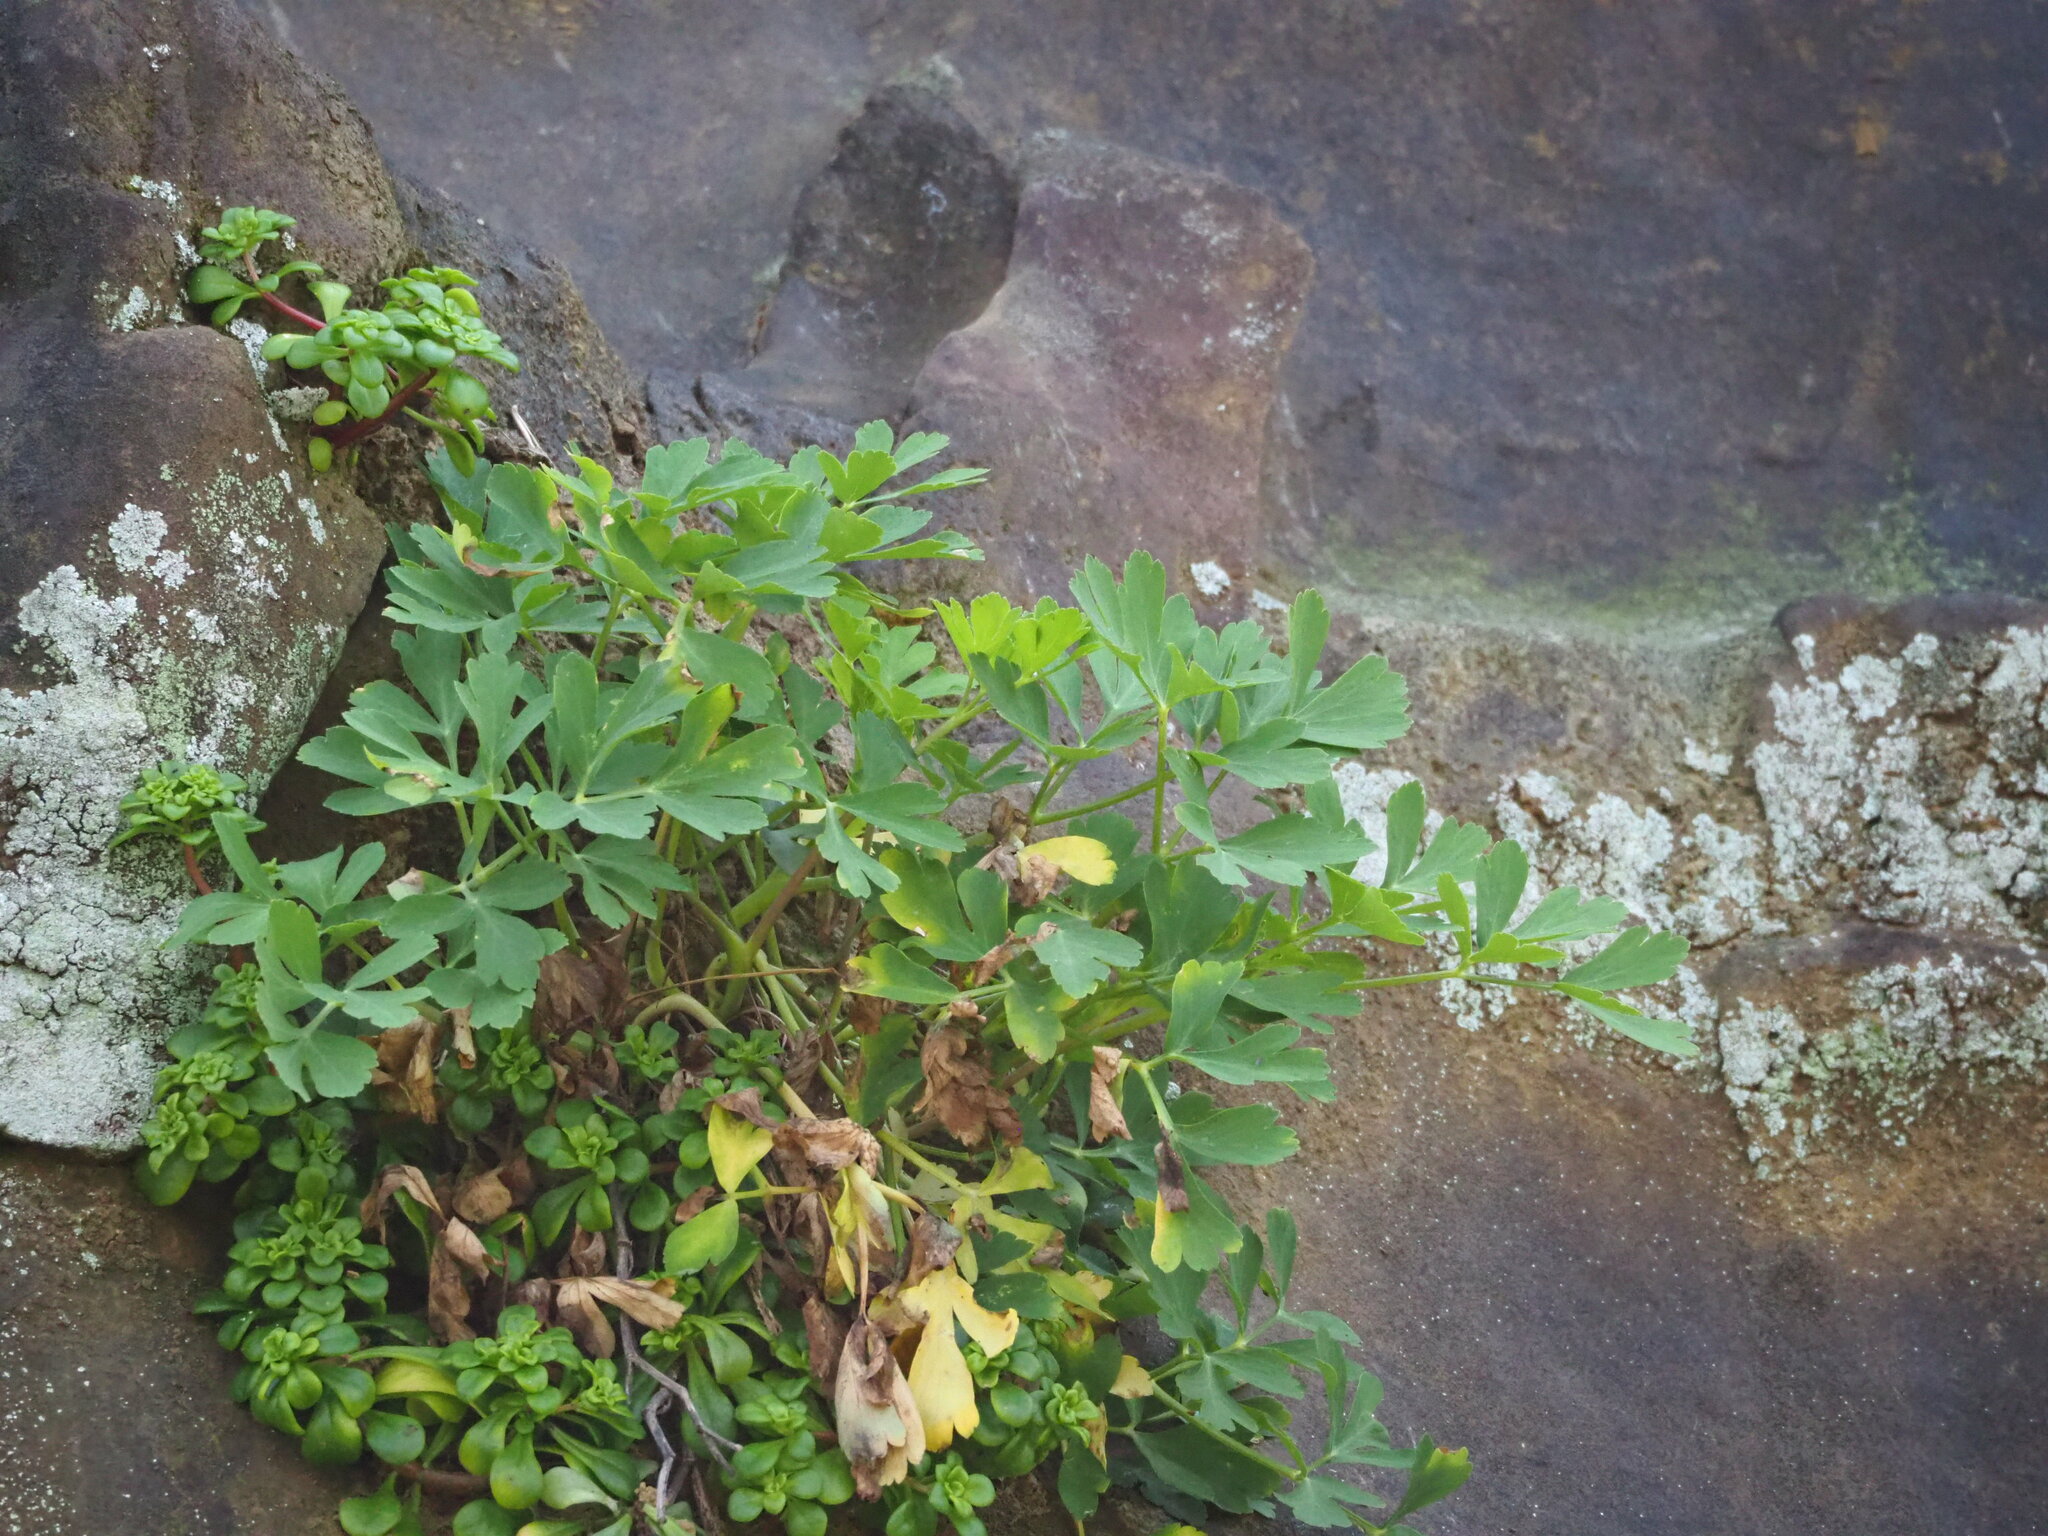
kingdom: Plantae
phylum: Tracheophyta
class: Magnoliopsida
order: Apiales
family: Apiaceae
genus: Peucedanum
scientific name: Peucedanum japonicum
